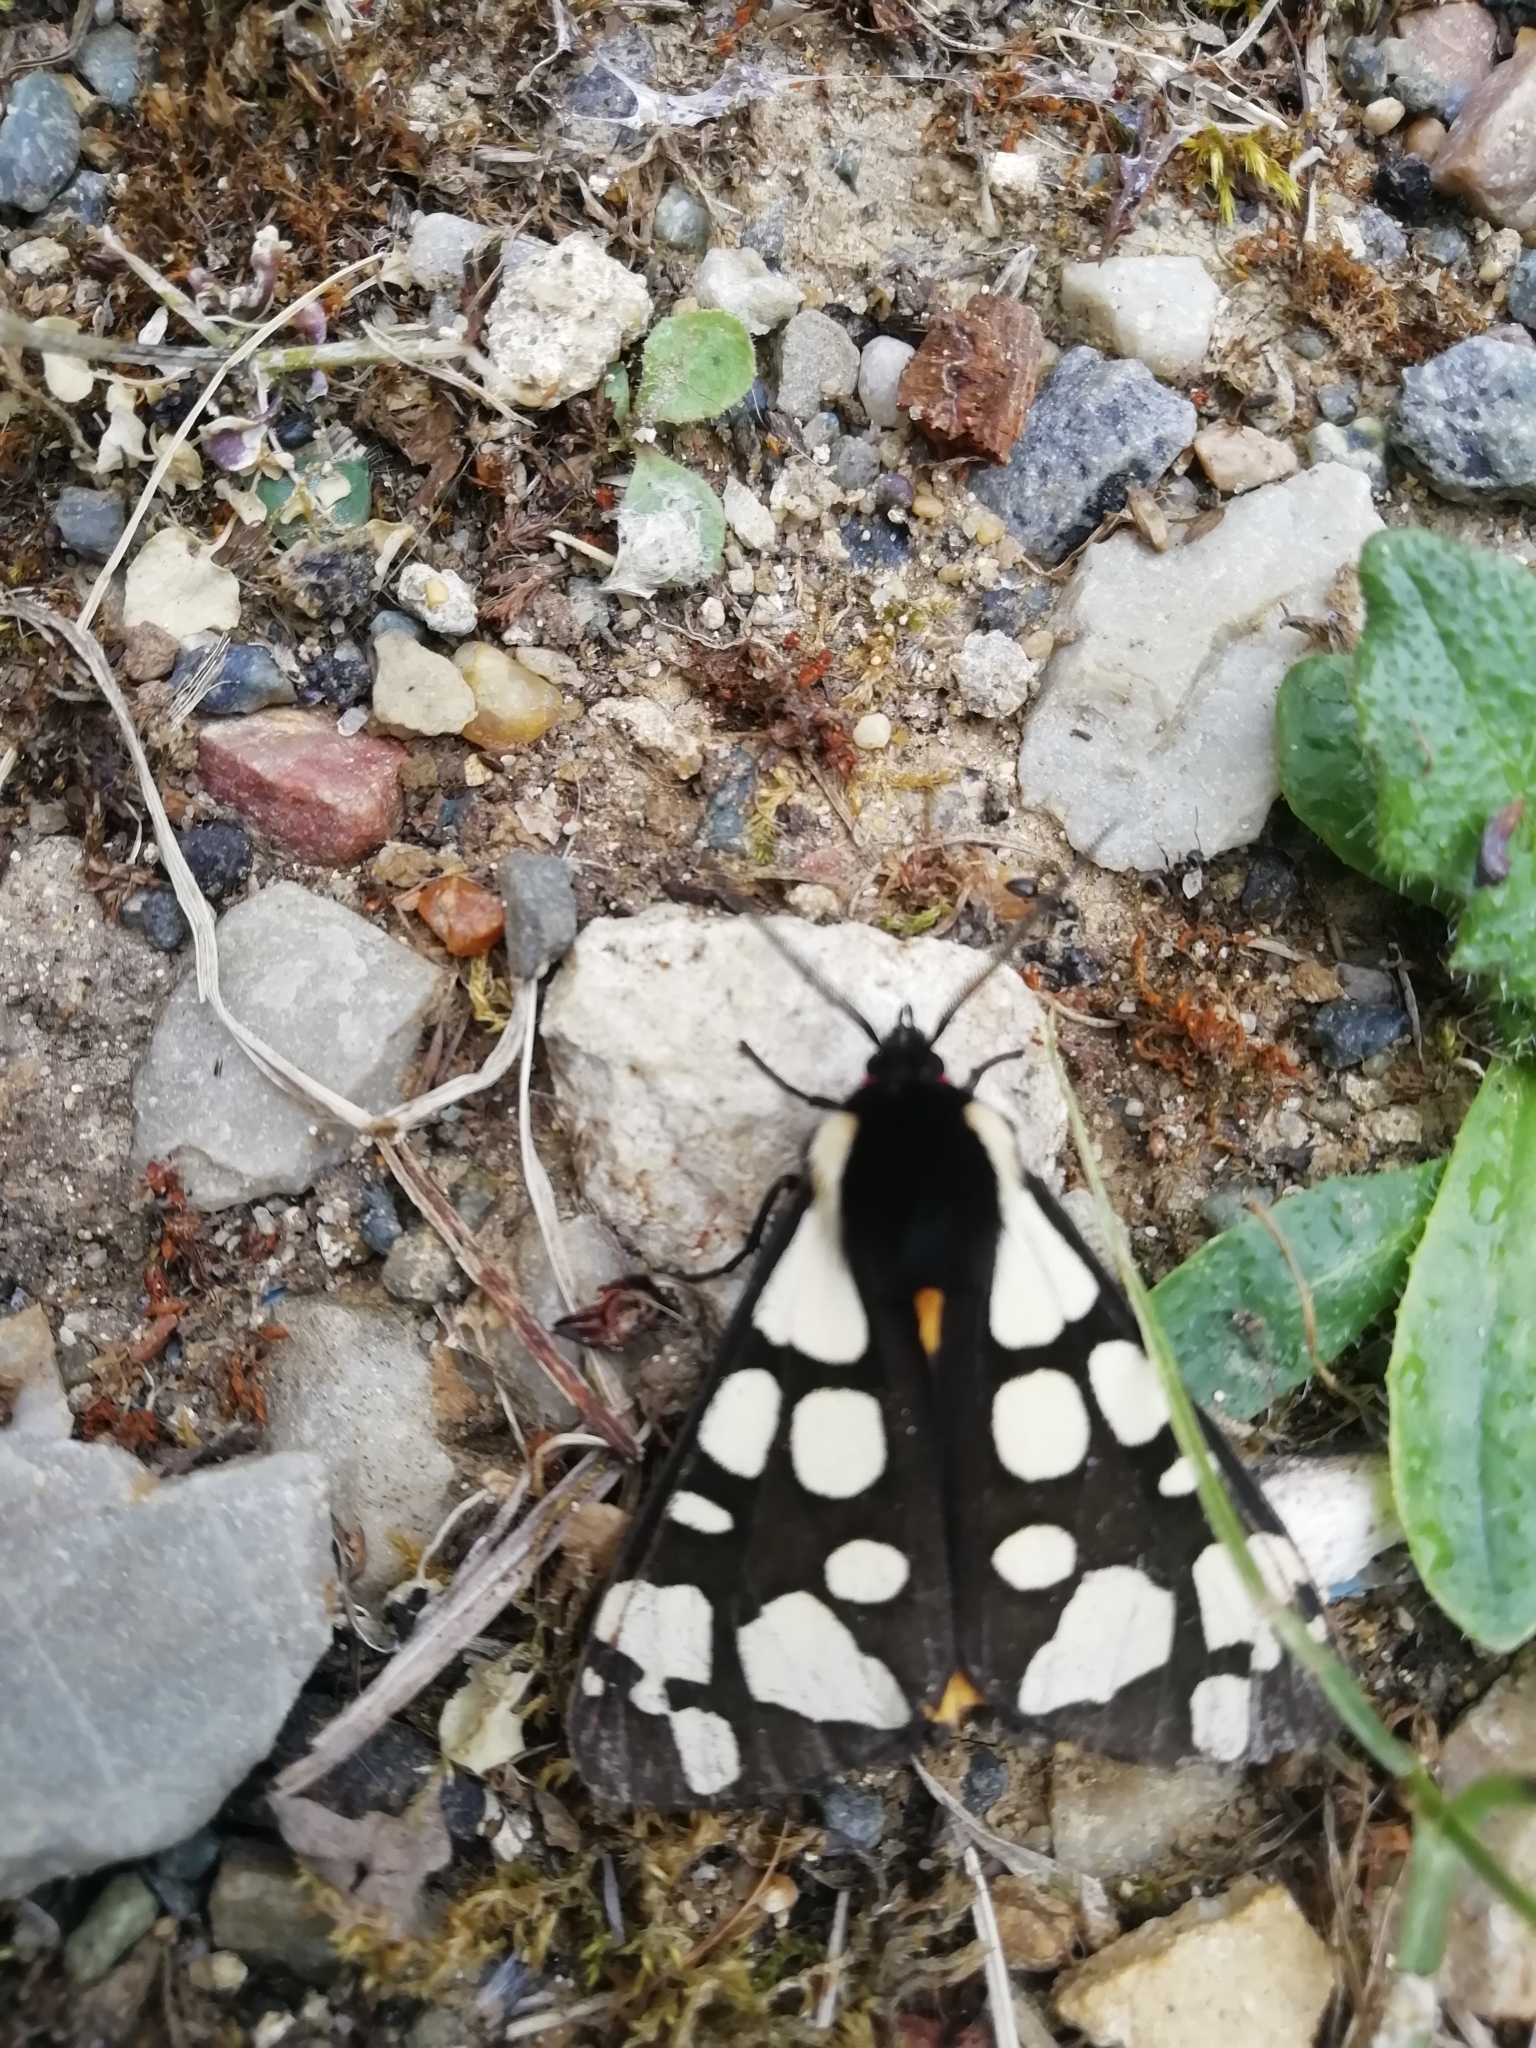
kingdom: Animalia
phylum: Arthropoda
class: Insecta
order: Lepidoptera
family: Erebidae
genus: Epicallia
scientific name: Epicallia villica
